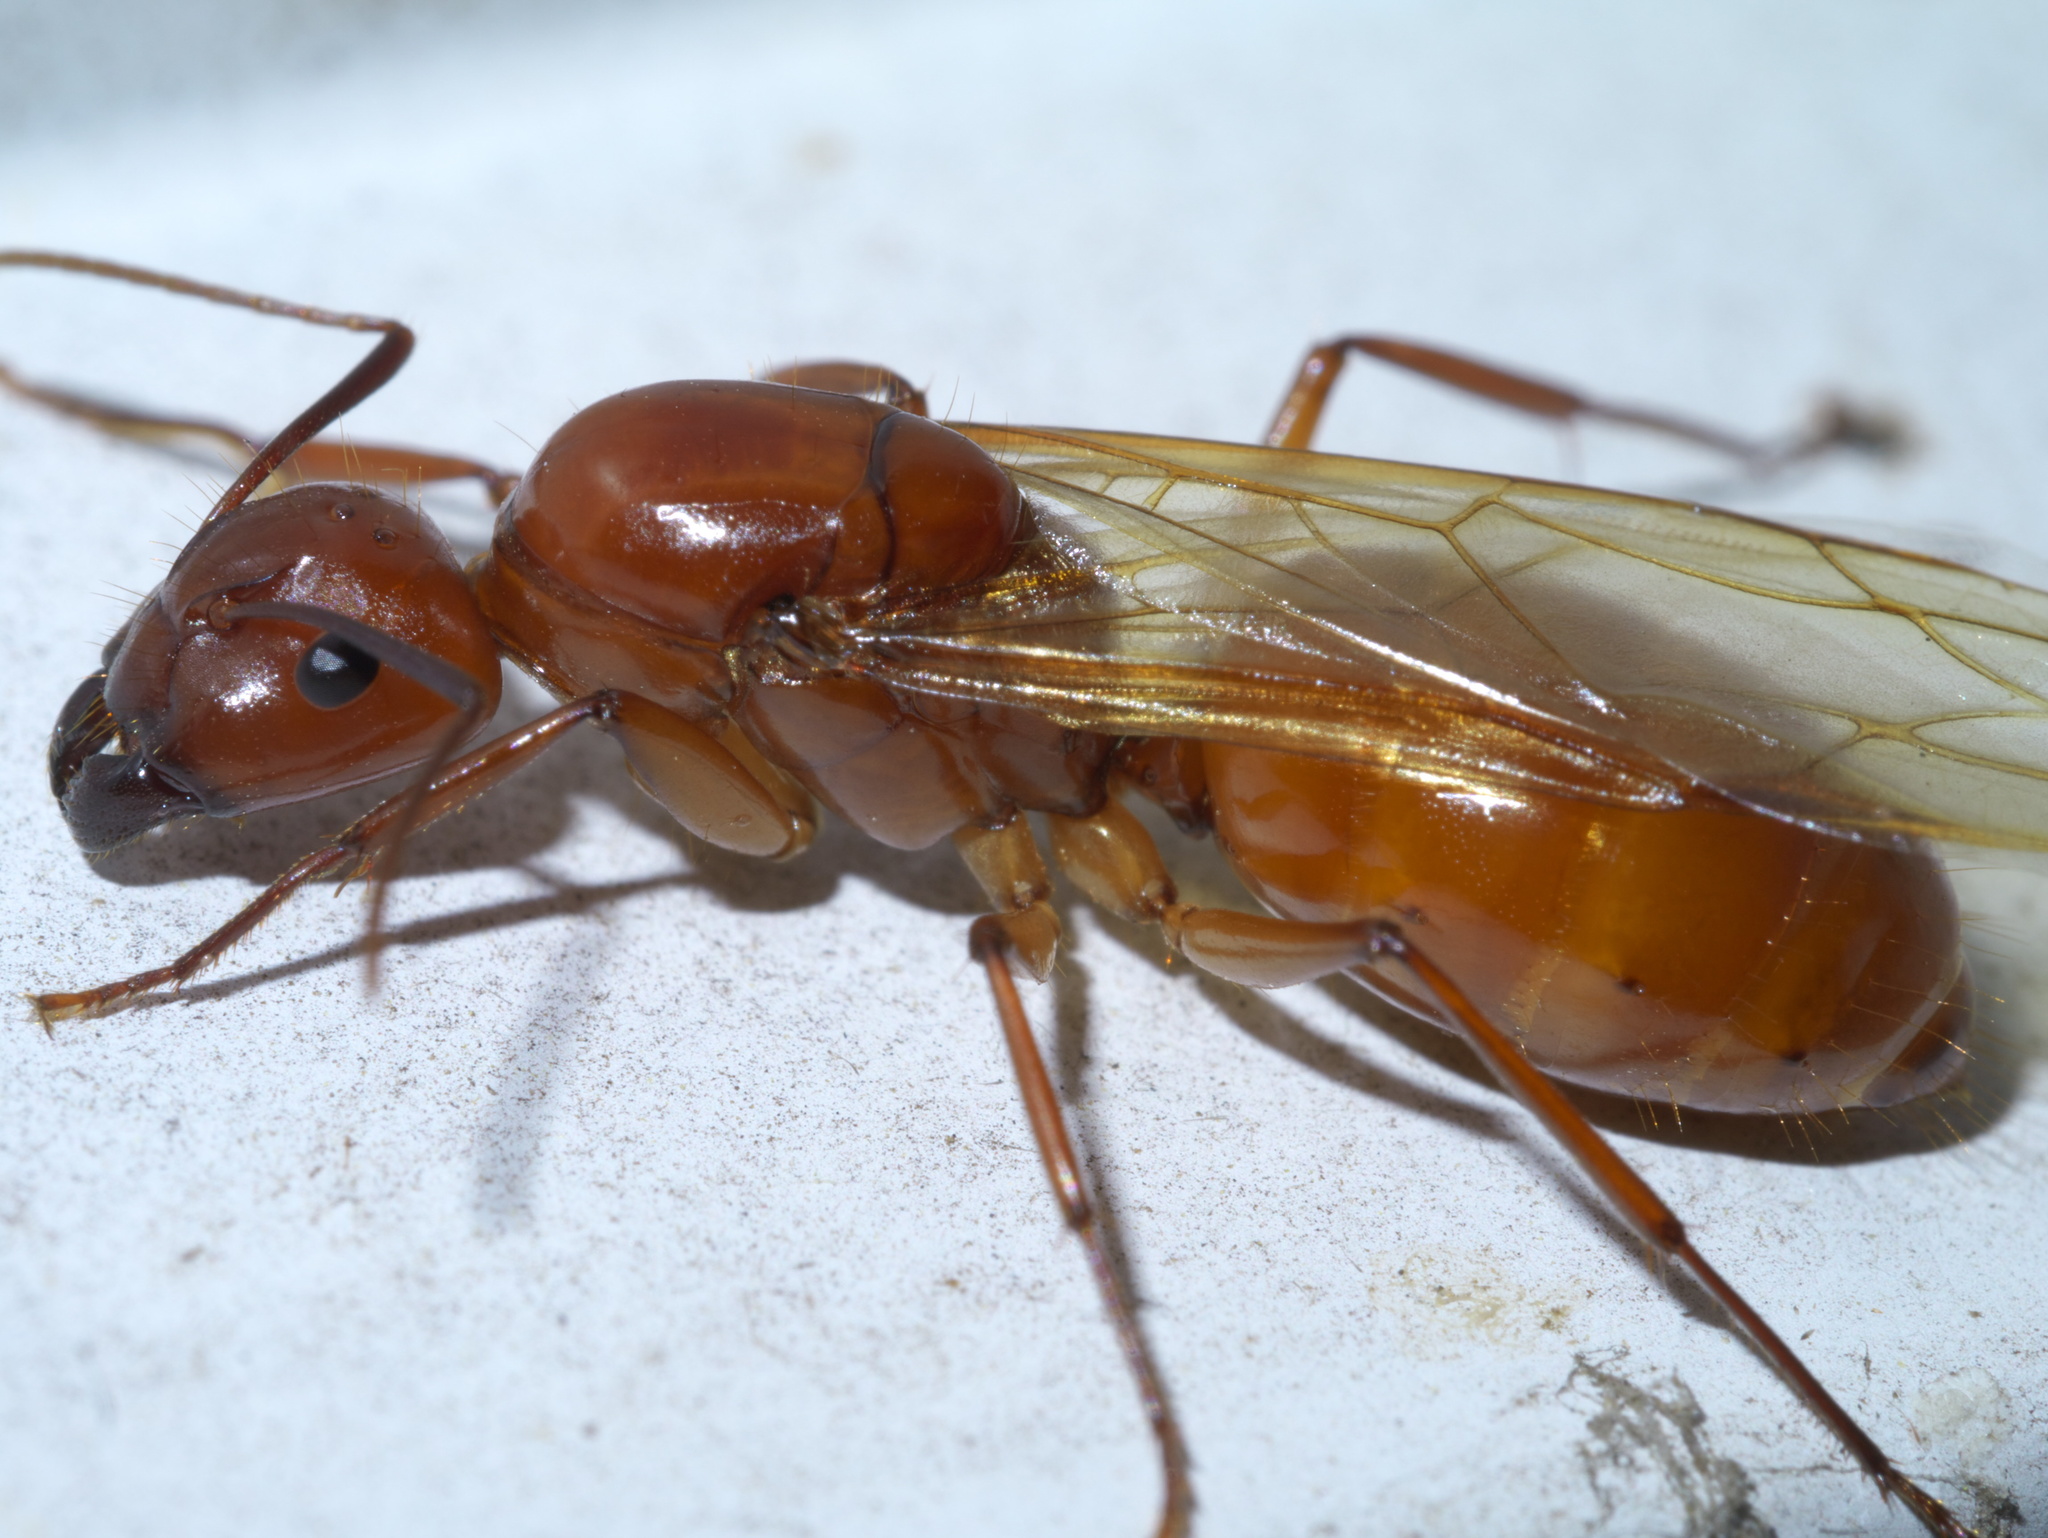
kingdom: Animalia
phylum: Arthropoda
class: Insecta
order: Hymenoptera
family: Formicidae
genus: Camponotus
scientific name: Camponotus castaneus
